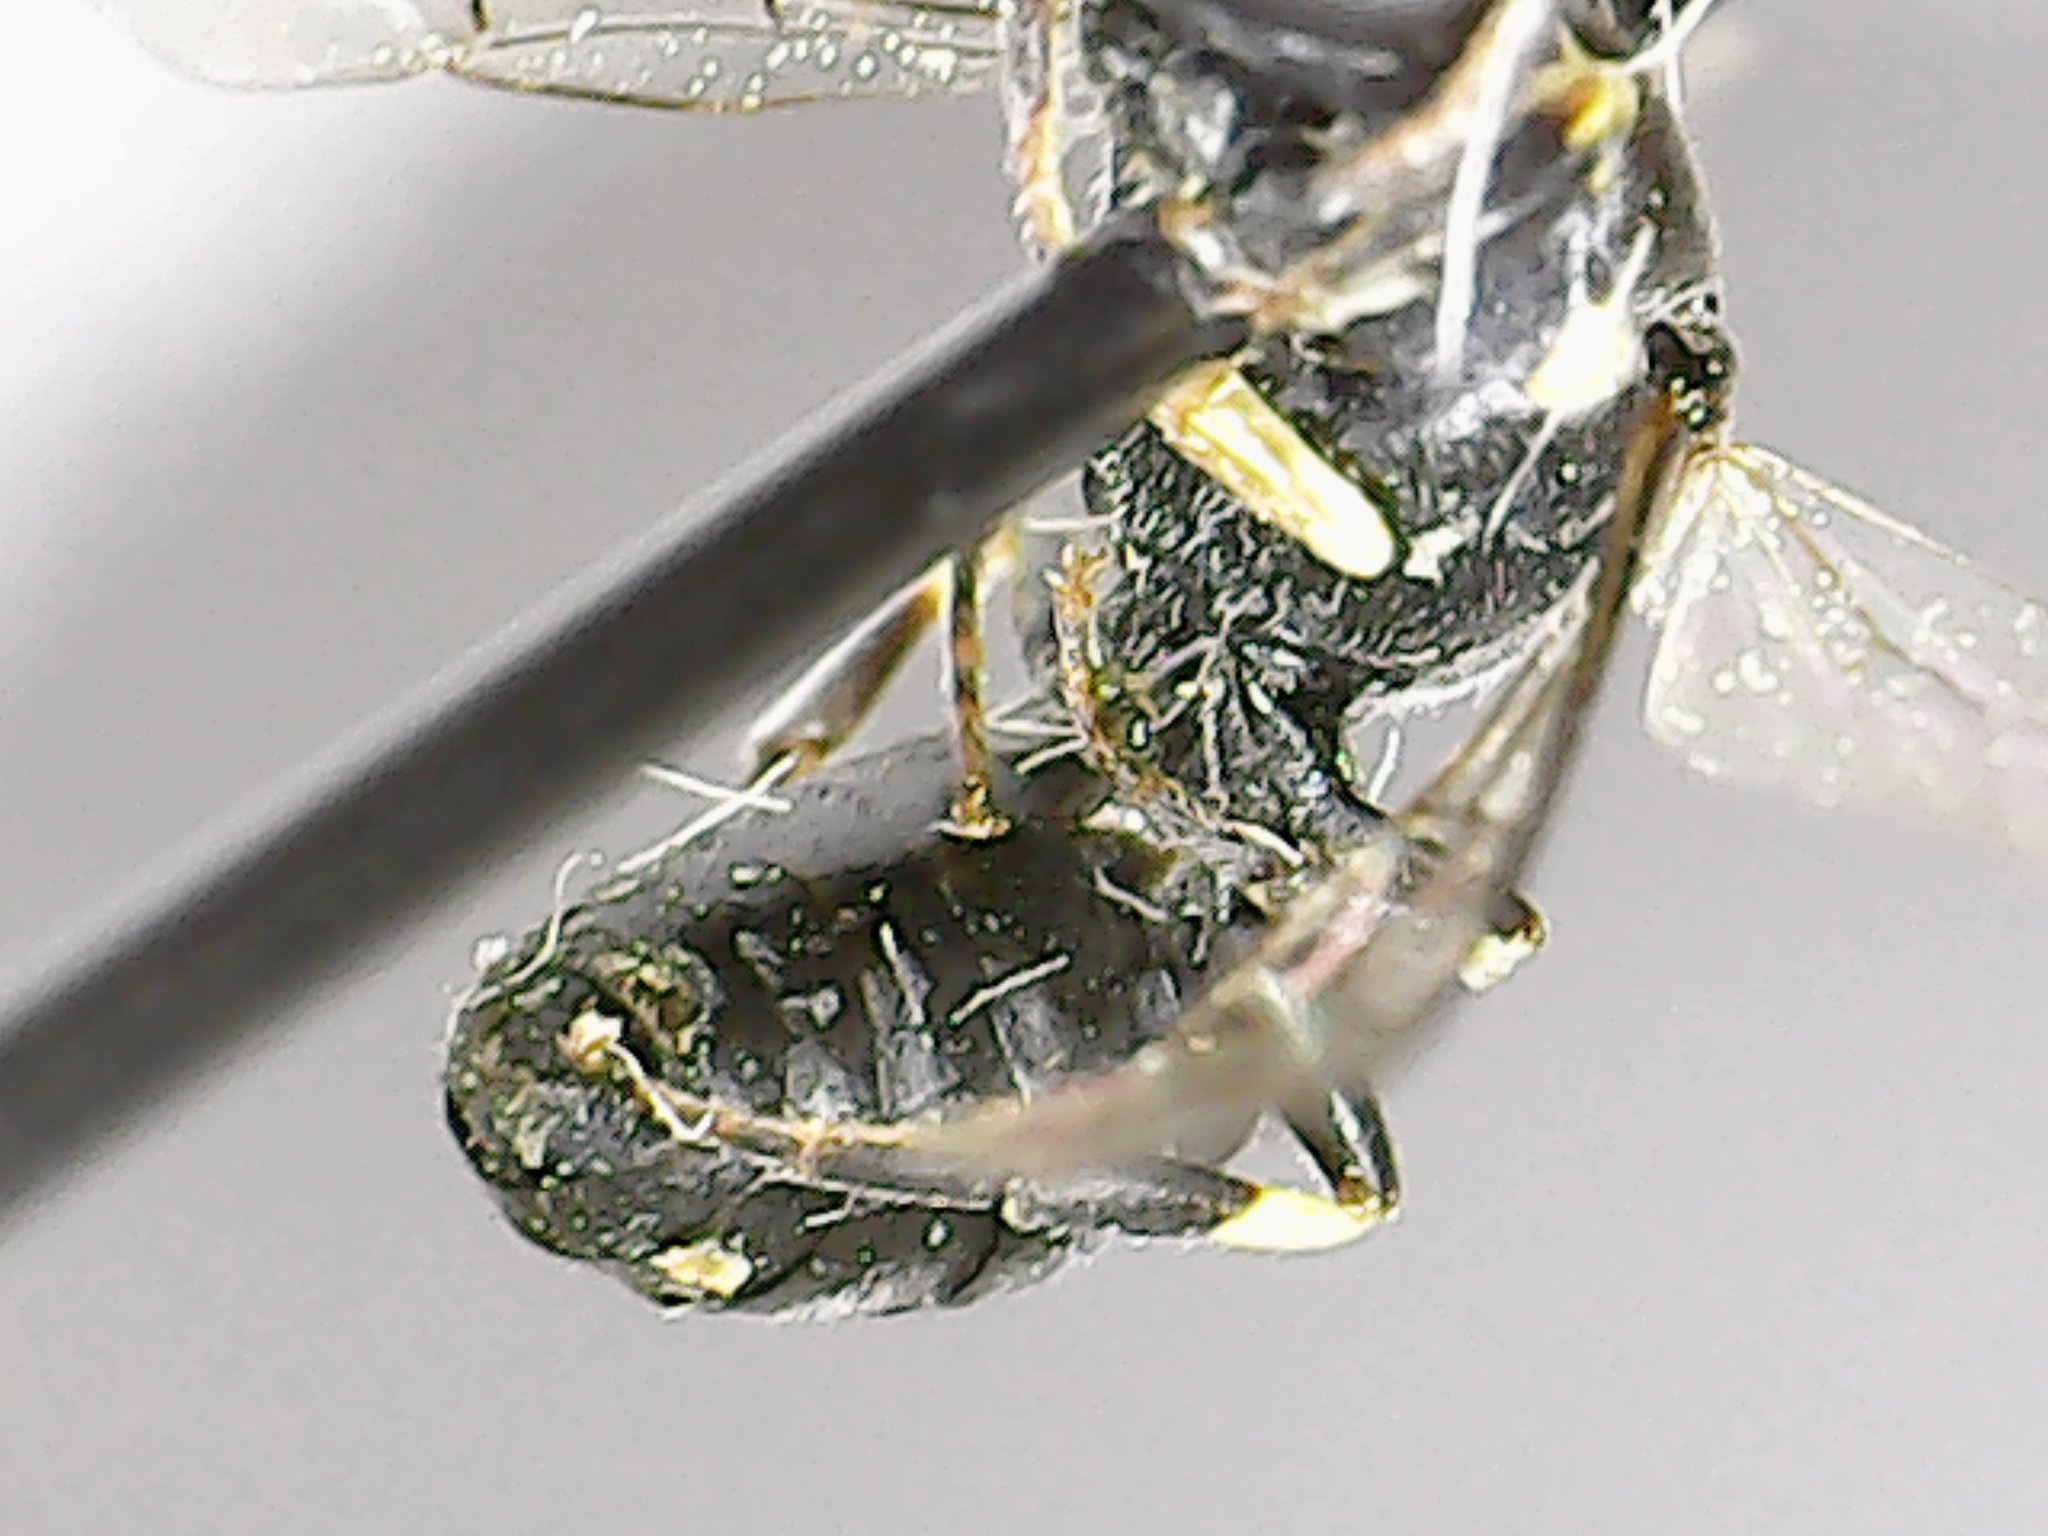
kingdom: Animalia
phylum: Arthropoda
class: Insecta
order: Hymenoptera
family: Colletidae
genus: Hylaeus
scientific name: Hylaeus modestus
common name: Yellow-faced bee
